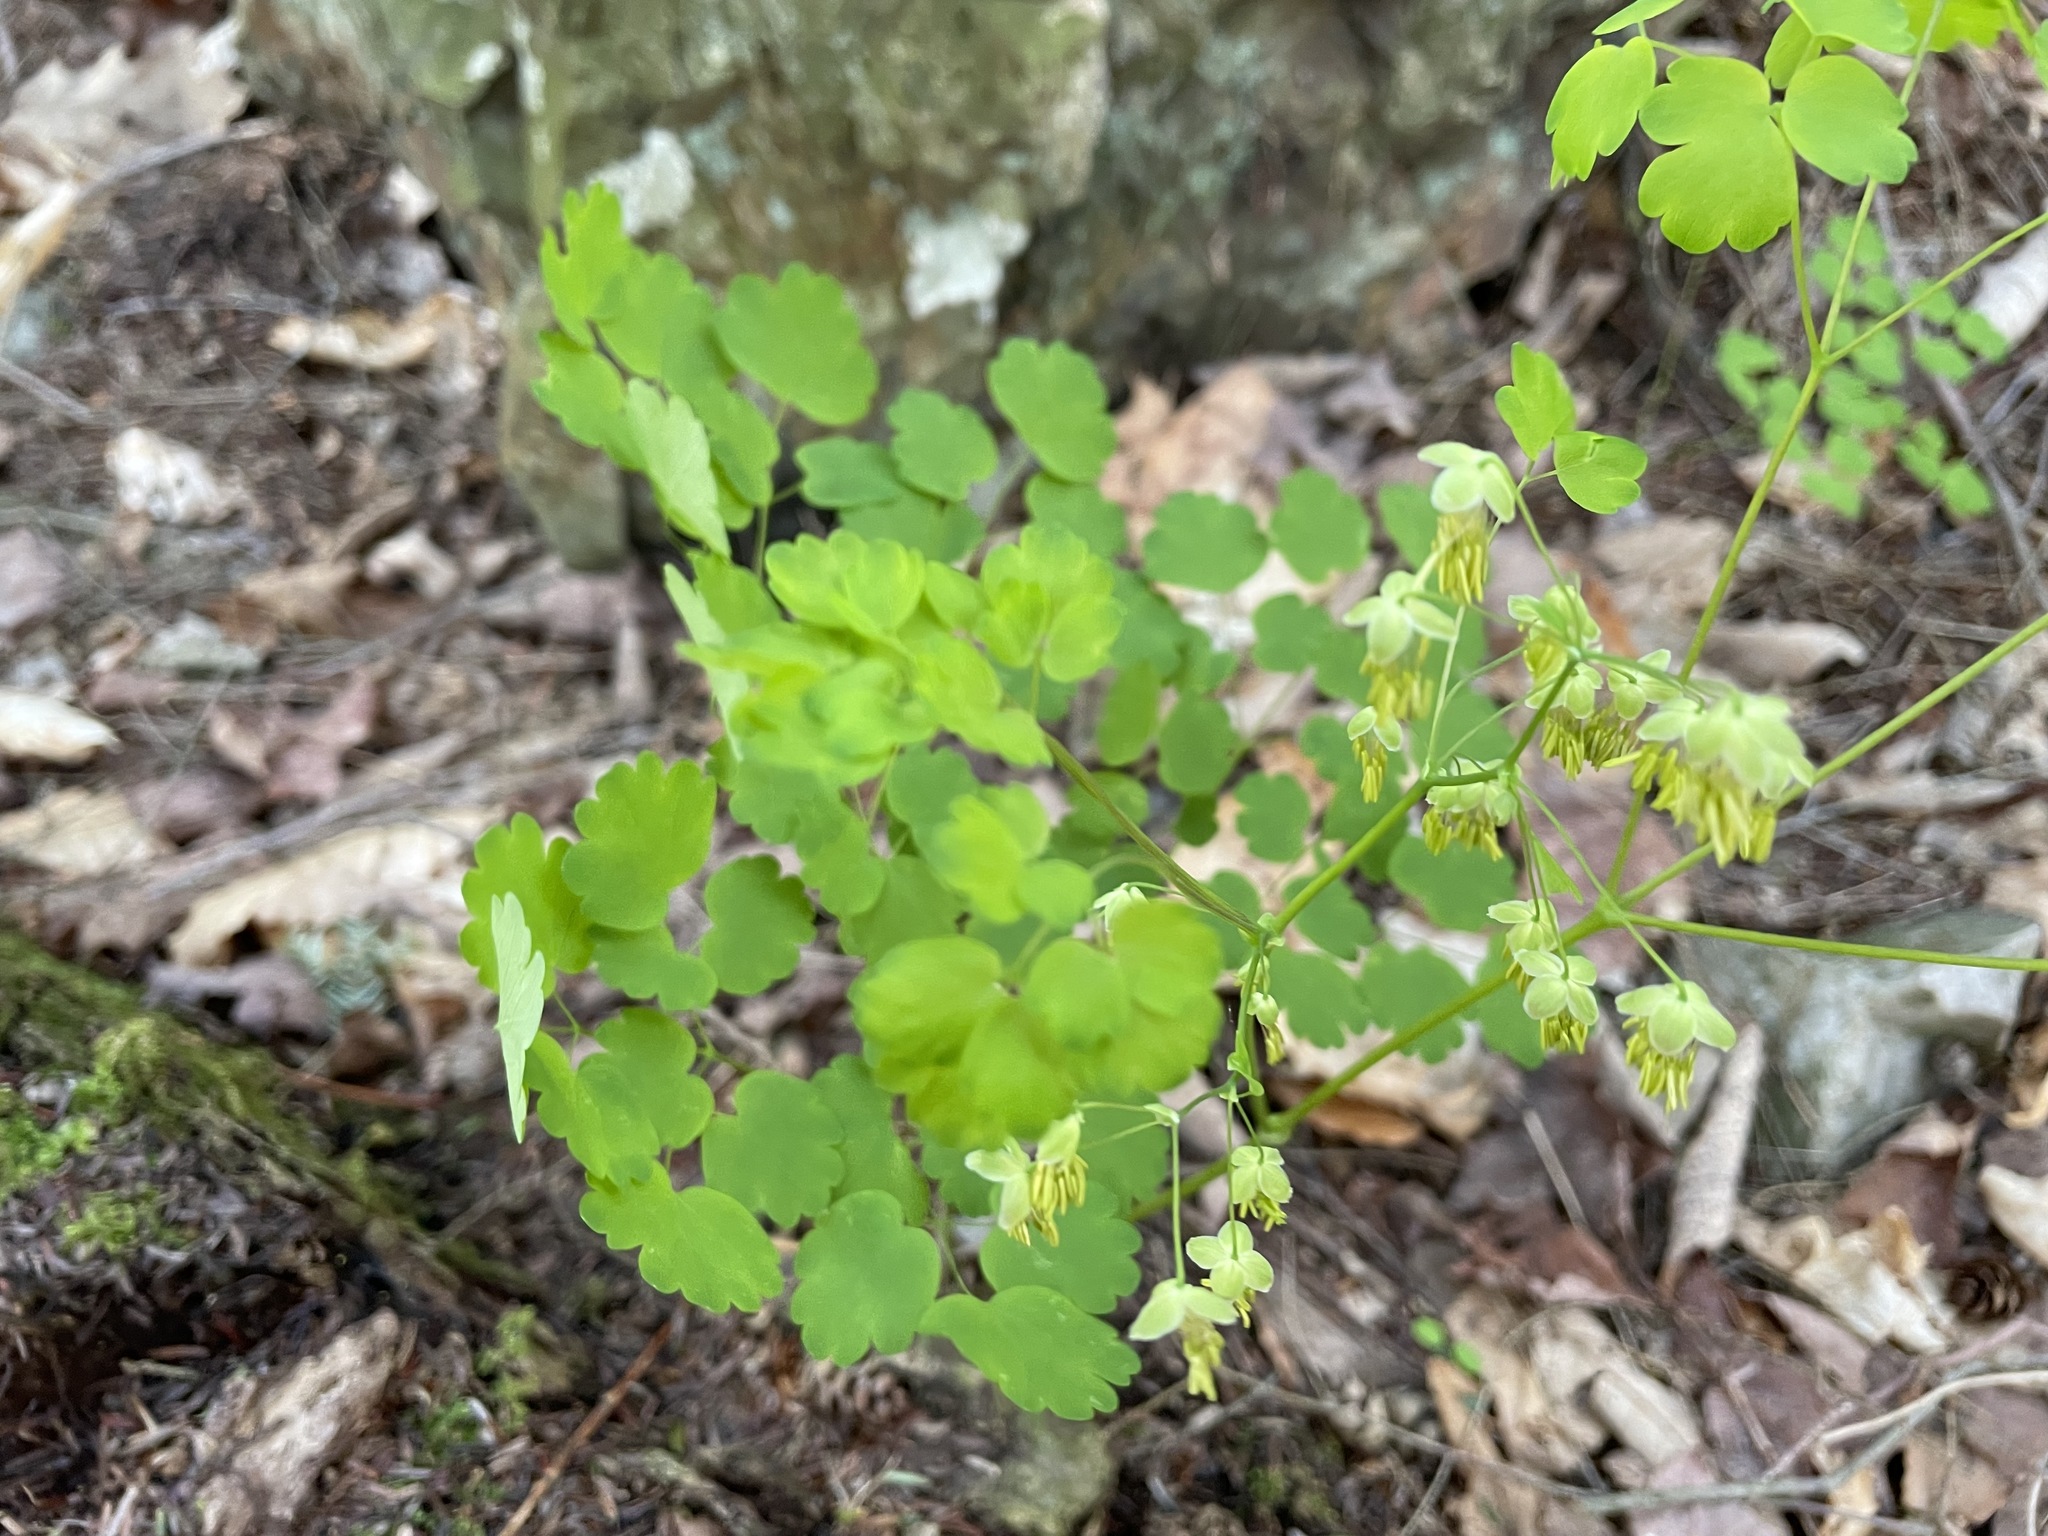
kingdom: Plantae
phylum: Tracheophyta
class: Magnoliopsida
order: Ranunculales
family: Ranunculaceae
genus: Thalictrum
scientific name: Thalictrum dioicum
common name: Early meadow-rue
